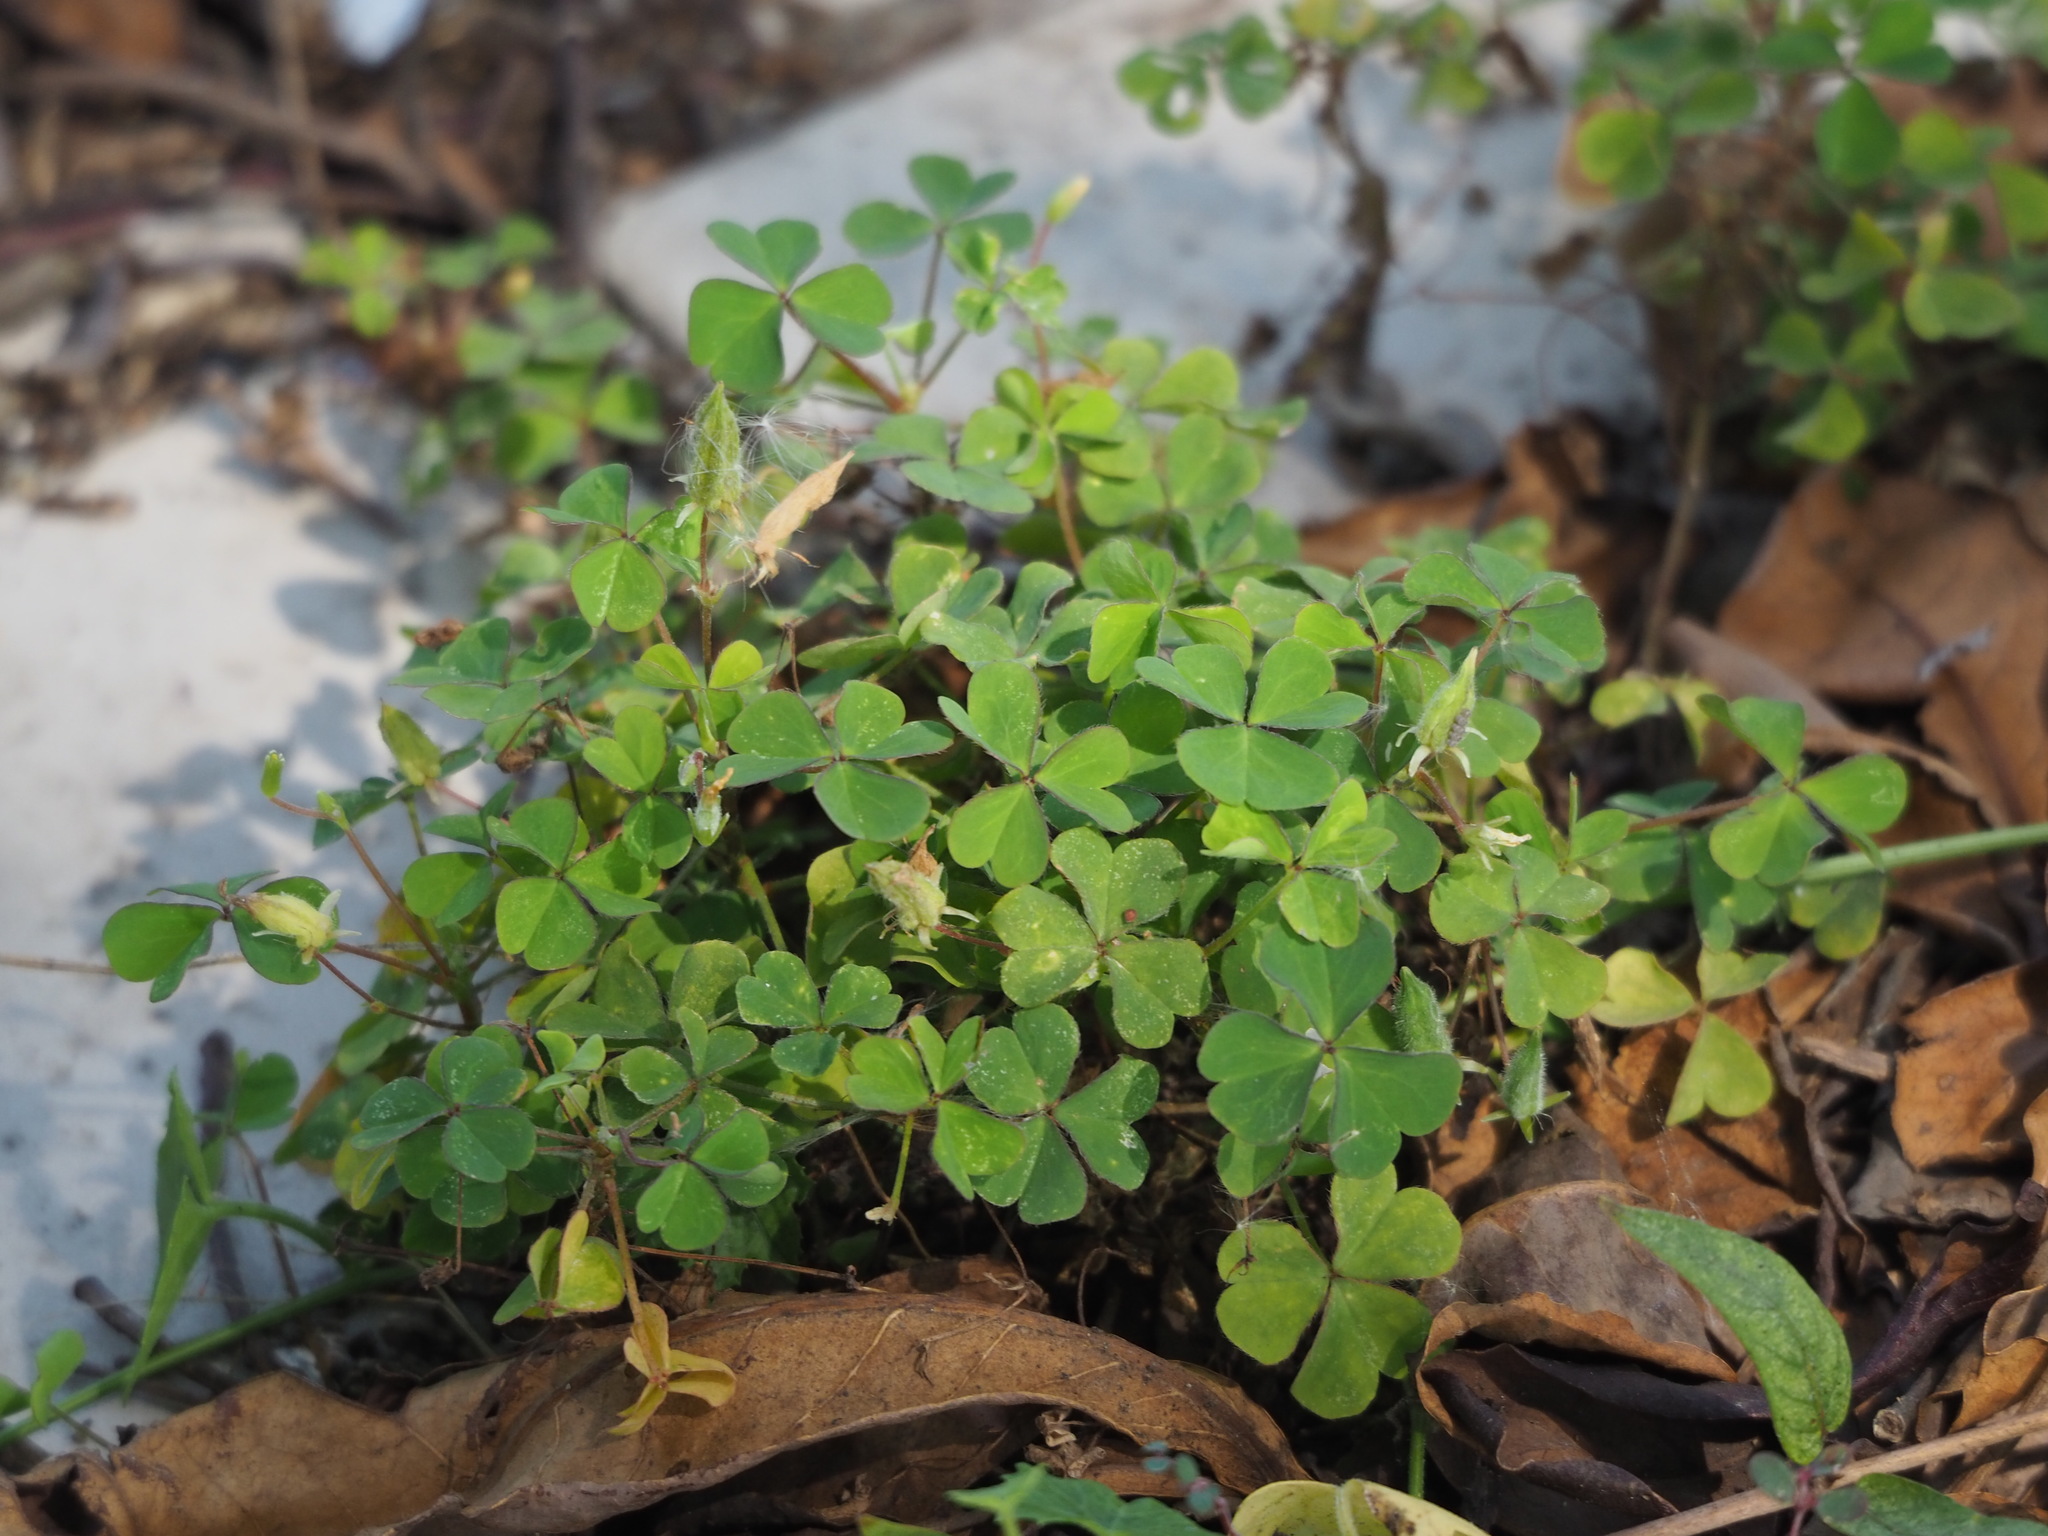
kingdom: Plantae
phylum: Tracheophyta
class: Magnoliopsida
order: Oxalidales
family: Oxalidaceae
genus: Oxalis
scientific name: Oxalis corniculata
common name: Procumbent yellow-sorrel
